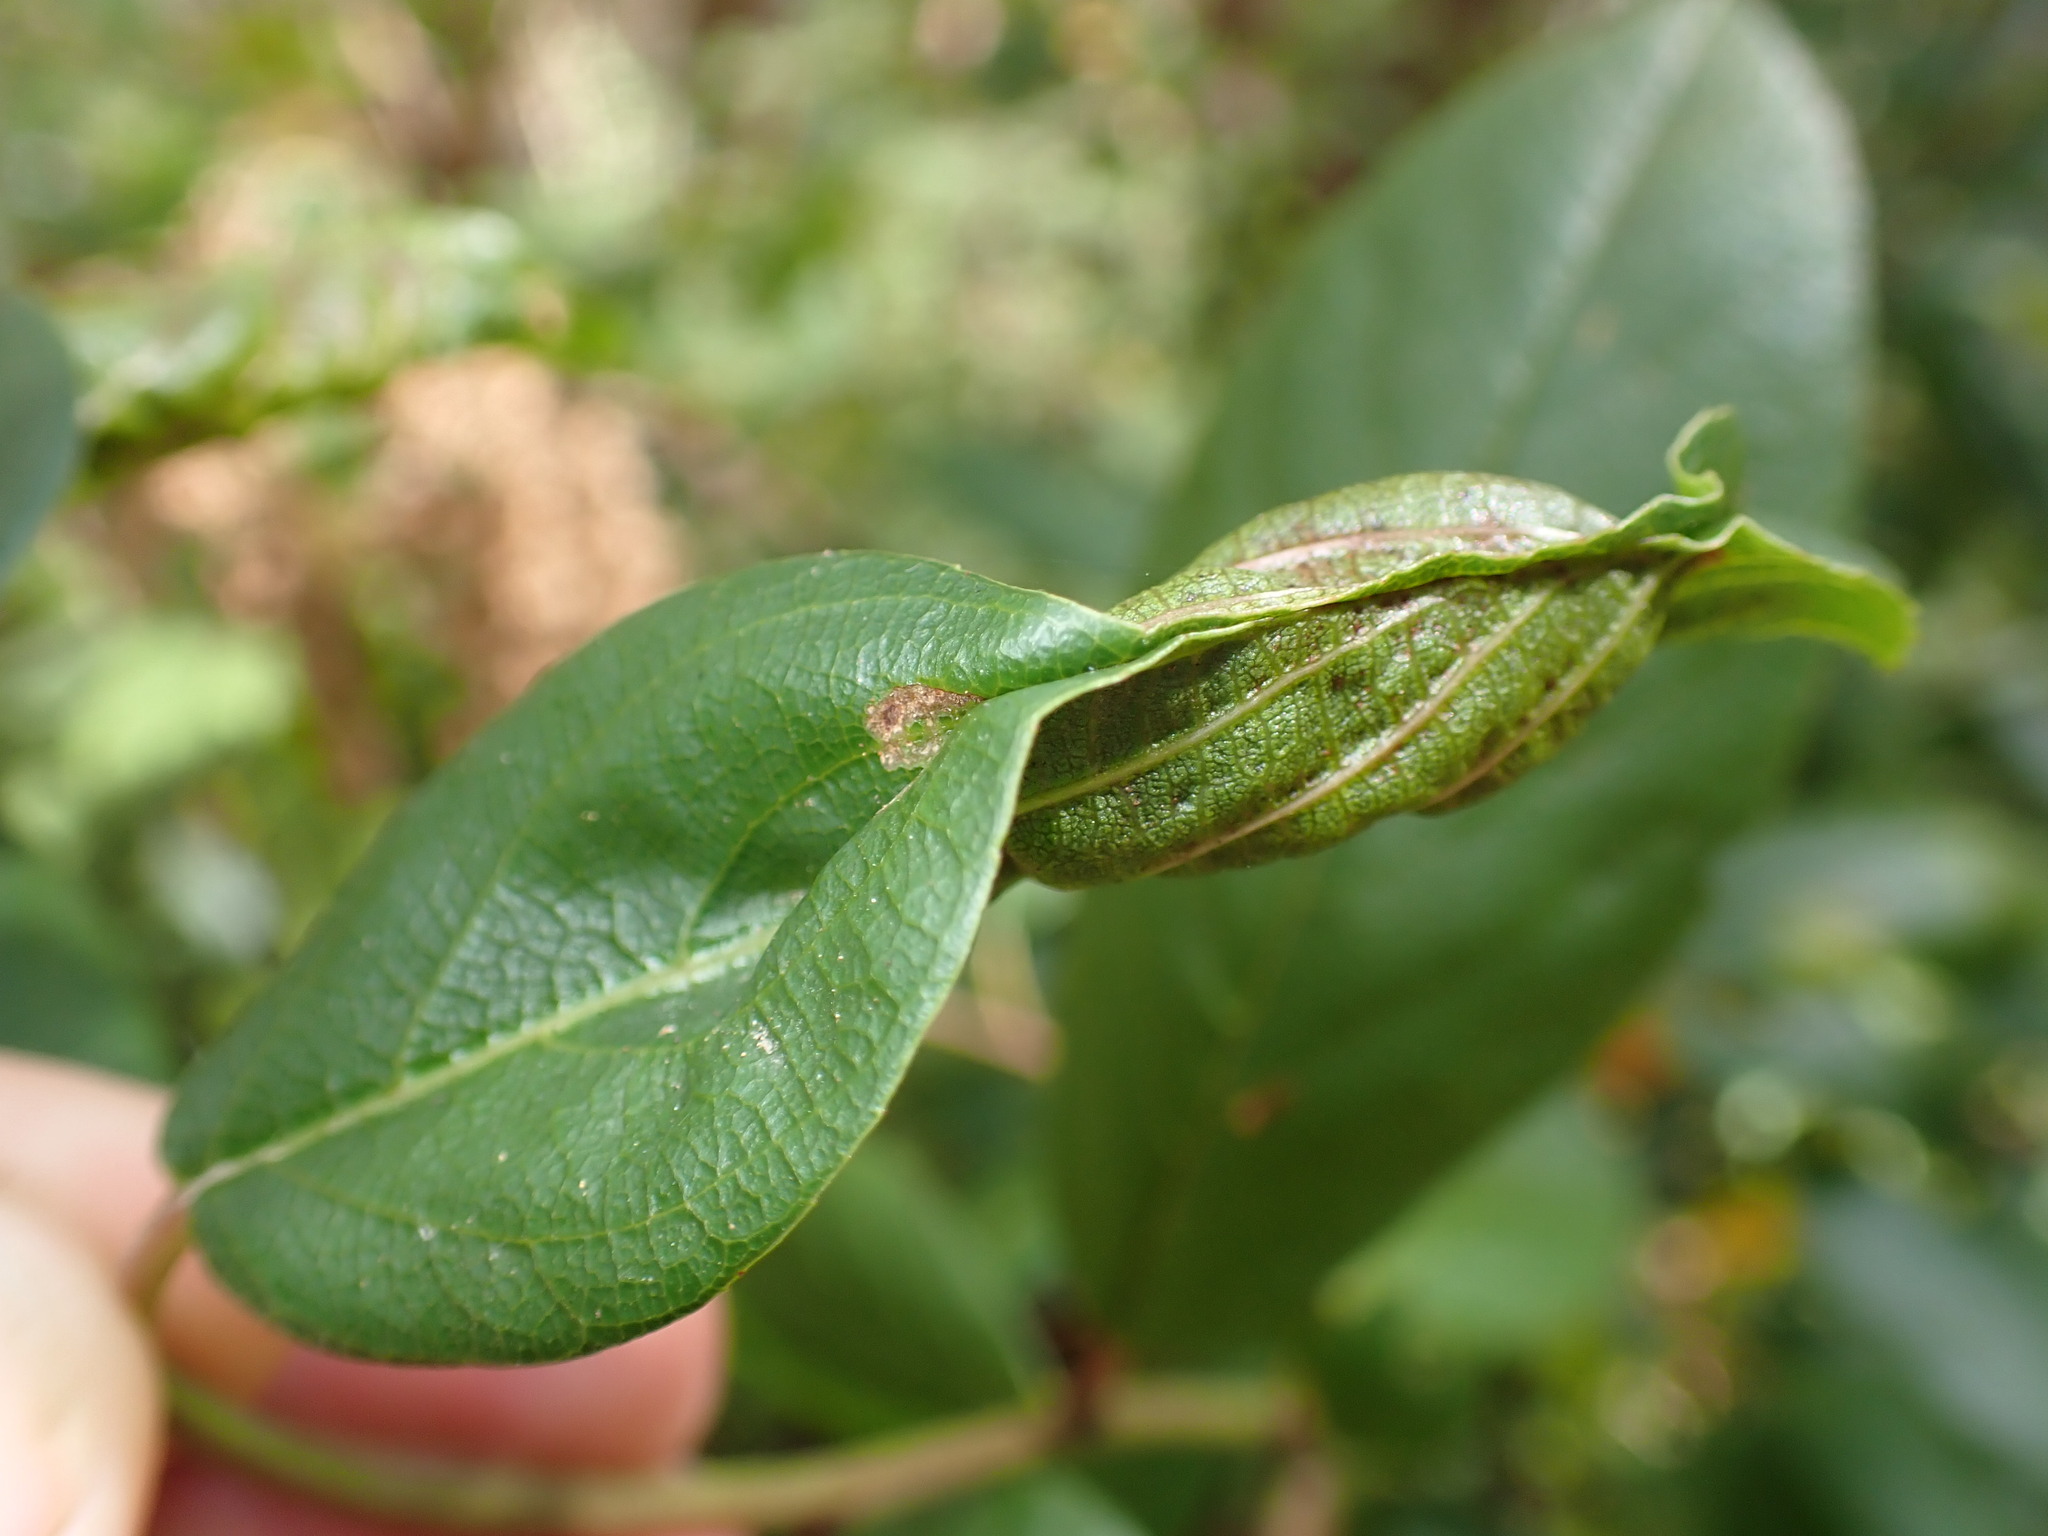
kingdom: Animalia
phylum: Arthropoda
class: Insecta
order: Lepidoptera
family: Cosmopterigidae
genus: Sorhagenia
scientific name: Sorhagenia nimbosus
